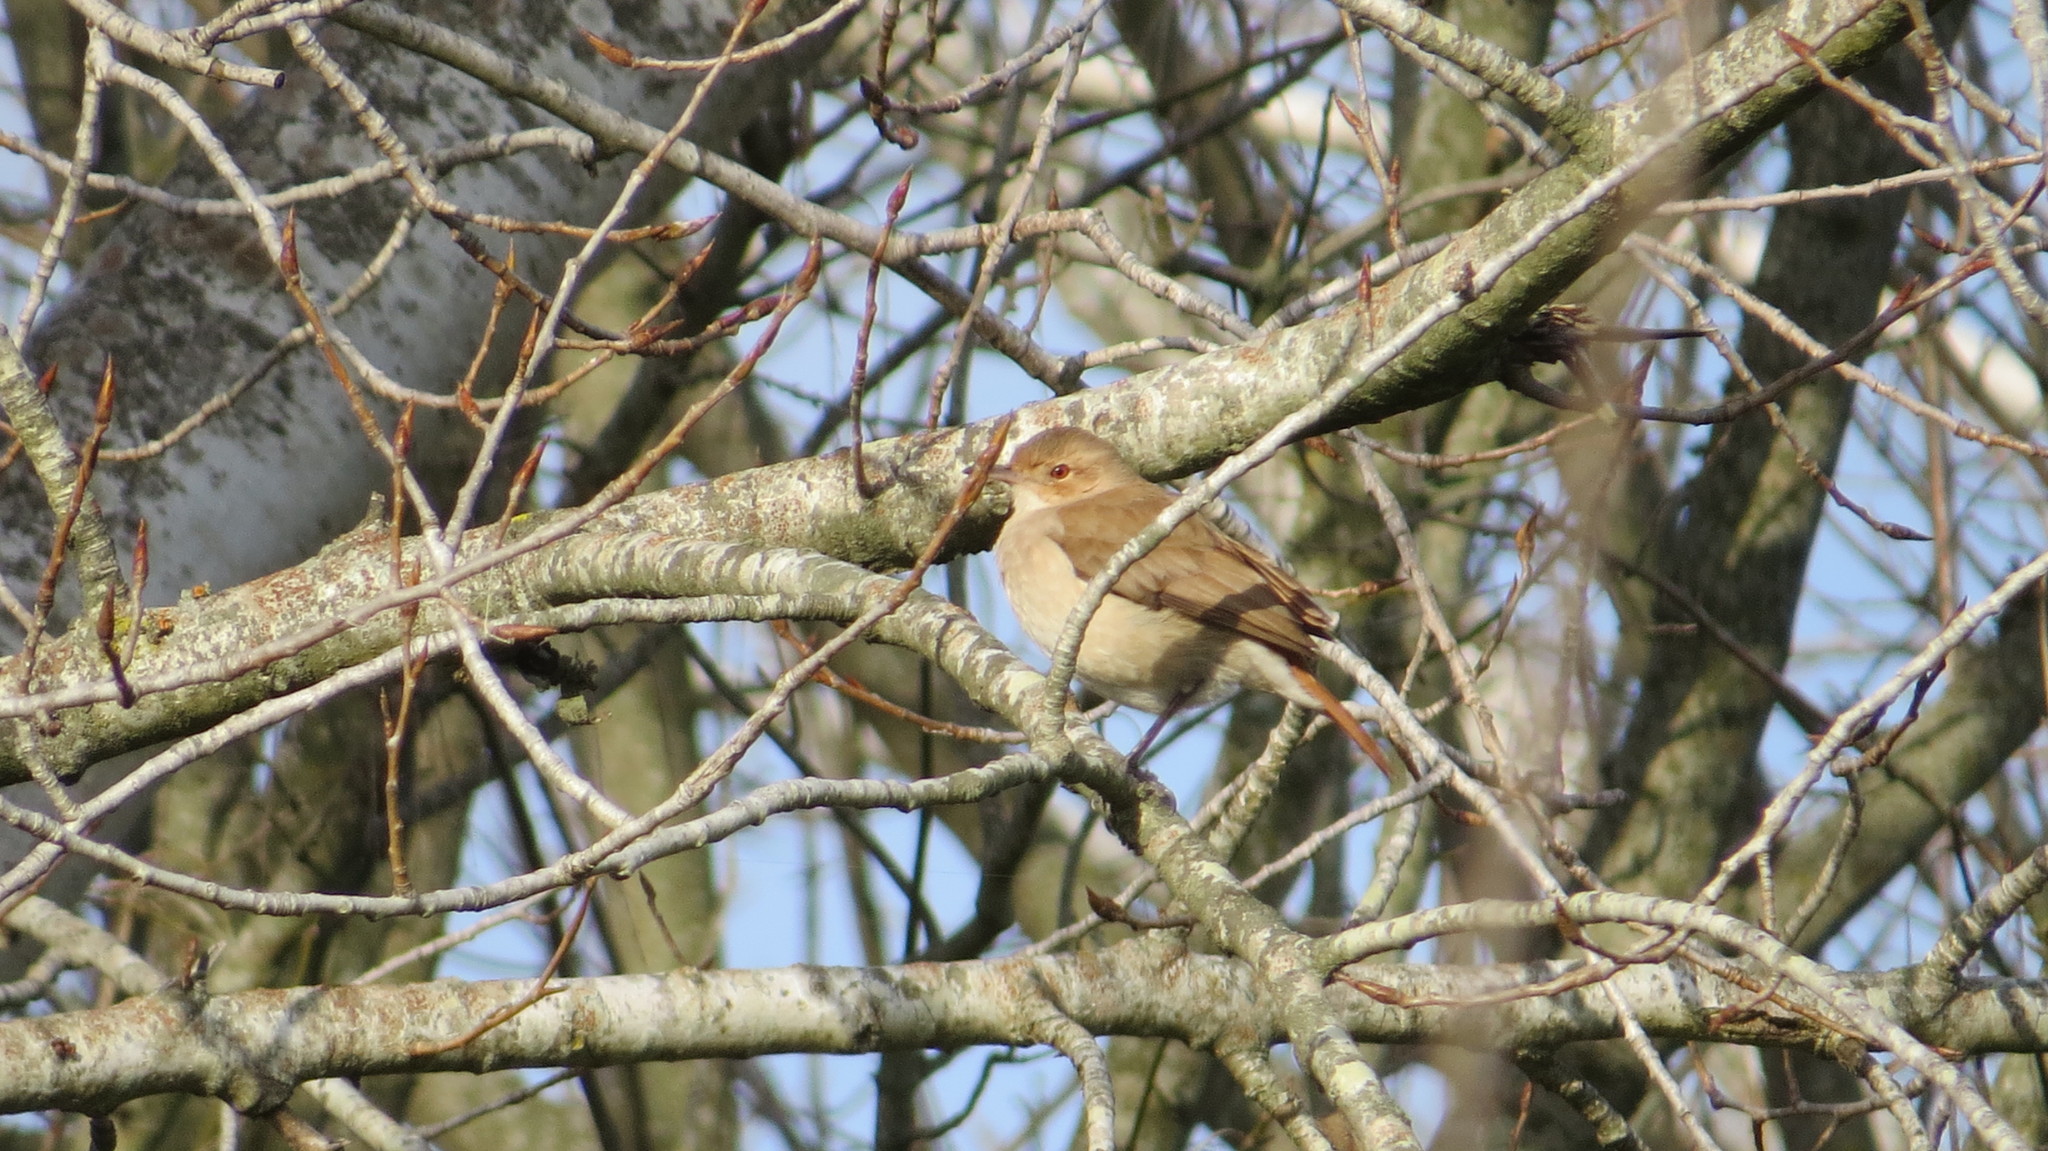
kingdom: Animalia
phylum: Chordata
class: Aves
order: Passeriformes
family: Furnariidae
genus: Furnarius
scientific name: Furnarius rufus
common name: Rufous hornero
